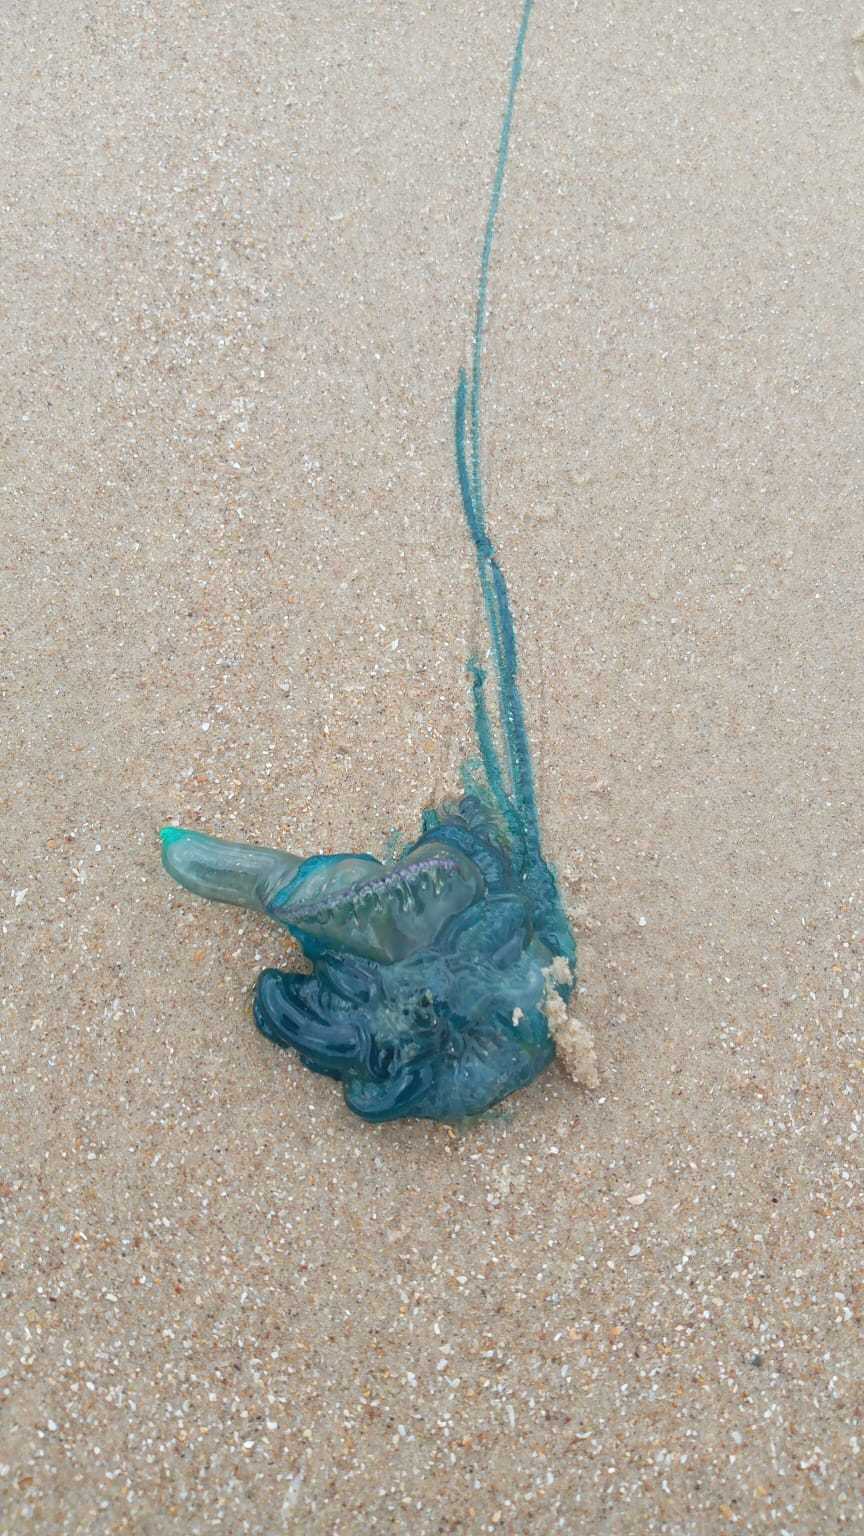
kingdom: Animalia
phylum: Cnidaria
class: Hydrozoa
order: Siphonophorae
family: Physaliidae
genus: Physalia
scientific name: Physalia physalis
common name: Portuguese man-of-war
